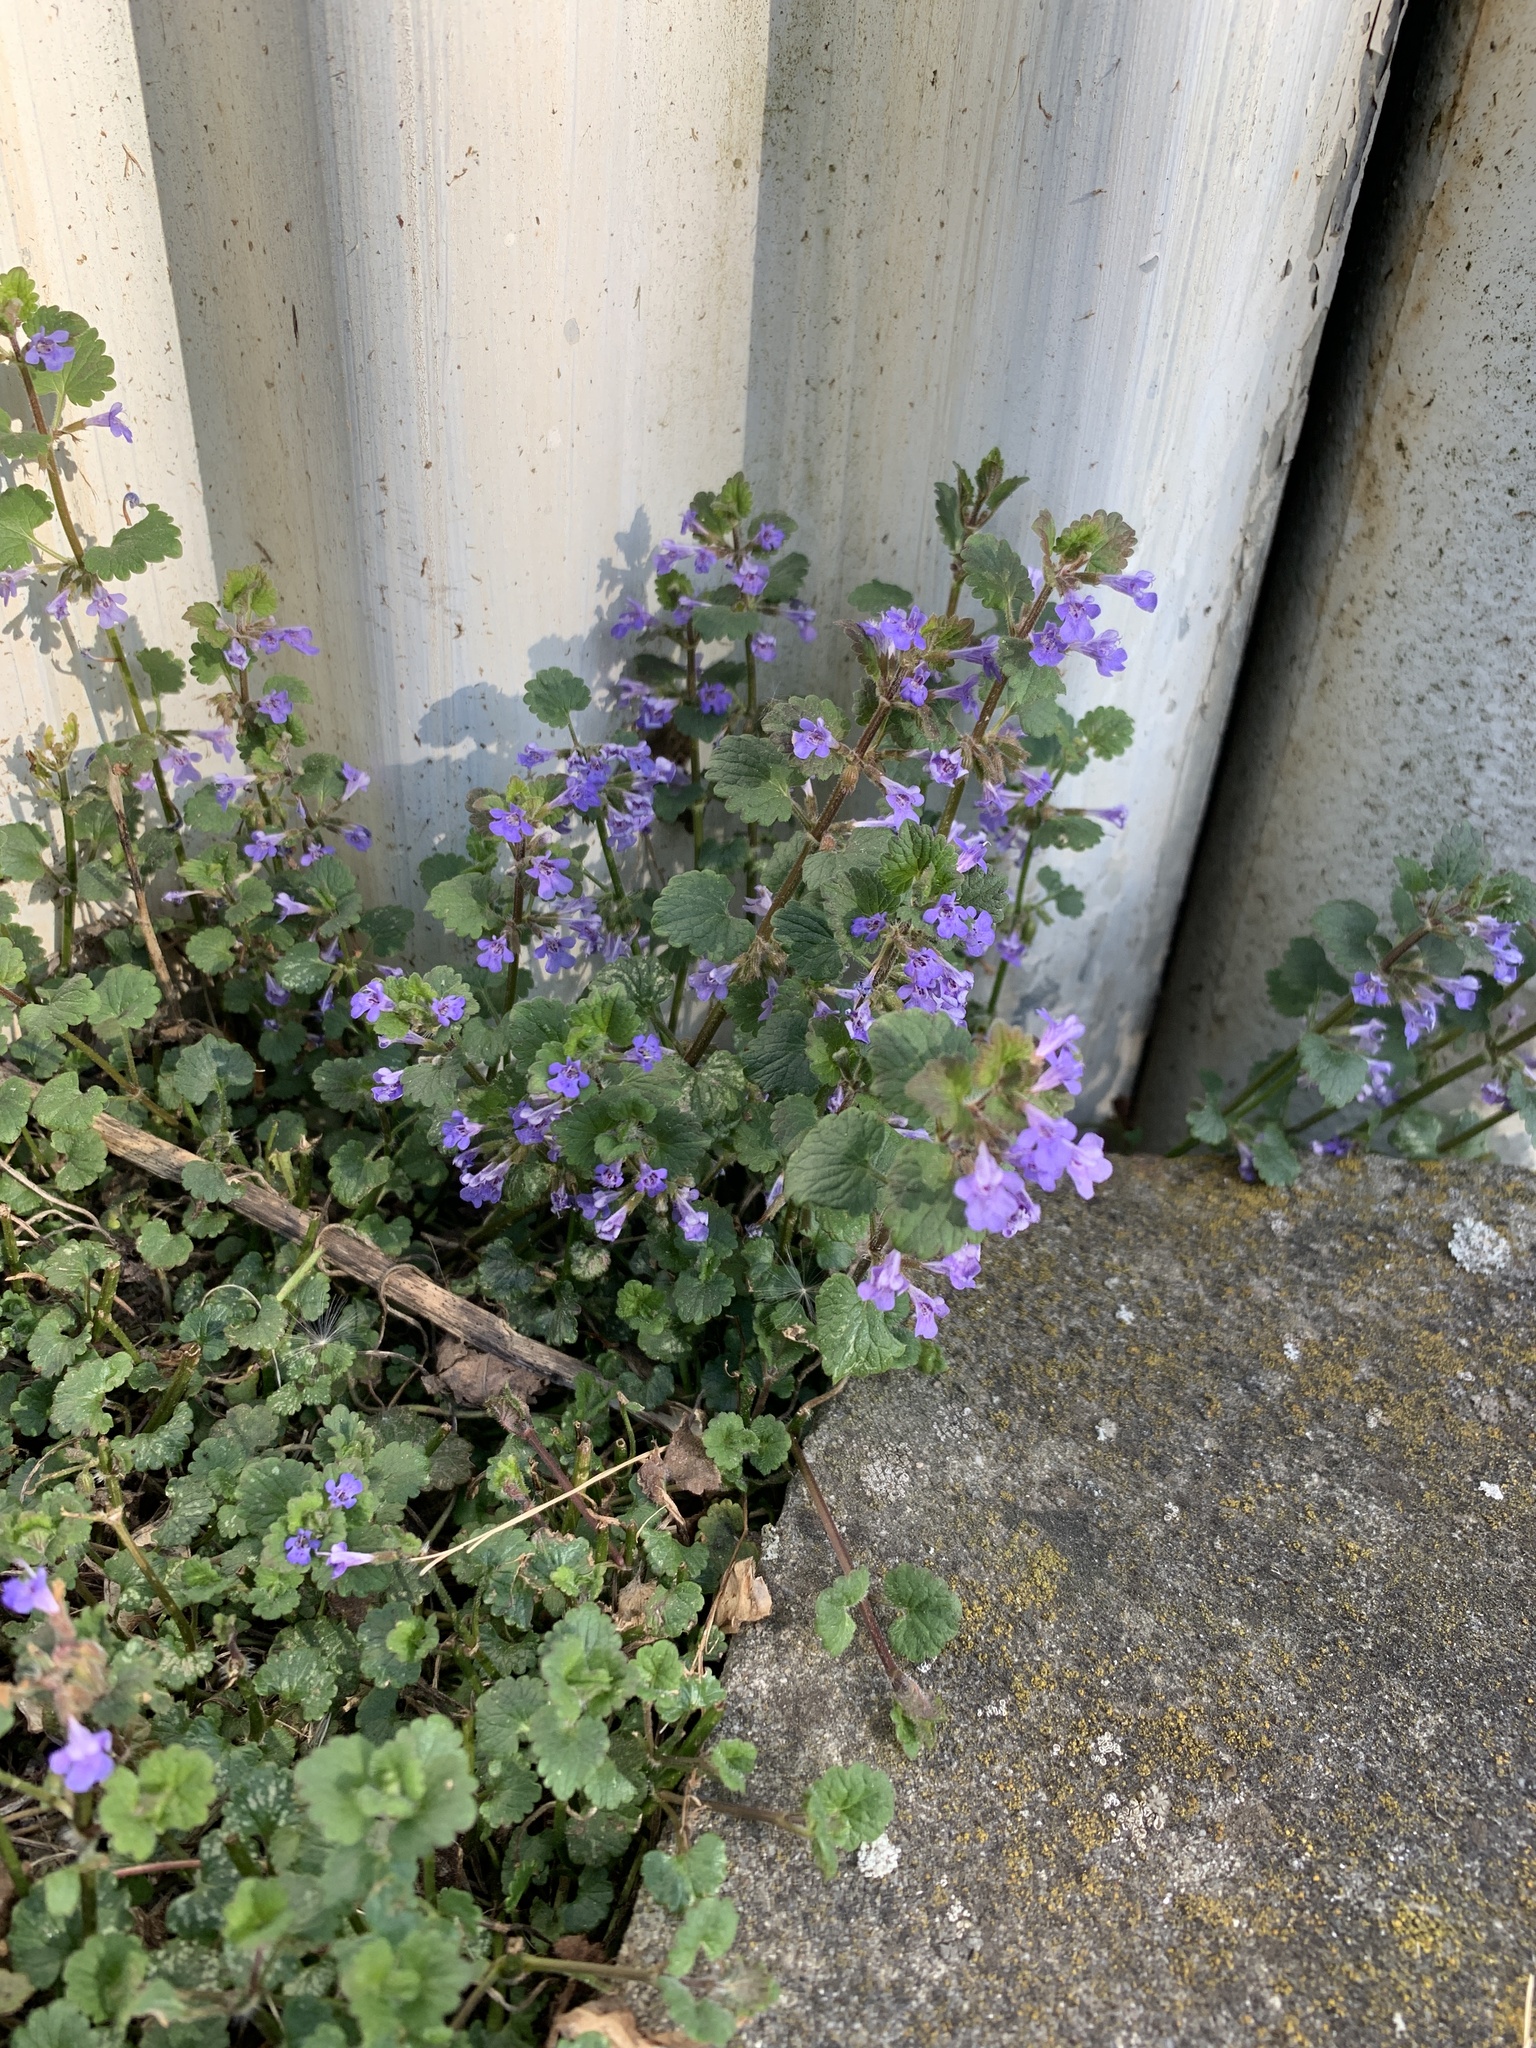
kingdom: Plantae
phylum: Tracheophyta
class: Magnoliopsida
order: Lamiales
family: Lamiaceae
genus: Glechoma
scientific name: Glechoma hederacea
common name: Ground ivy
